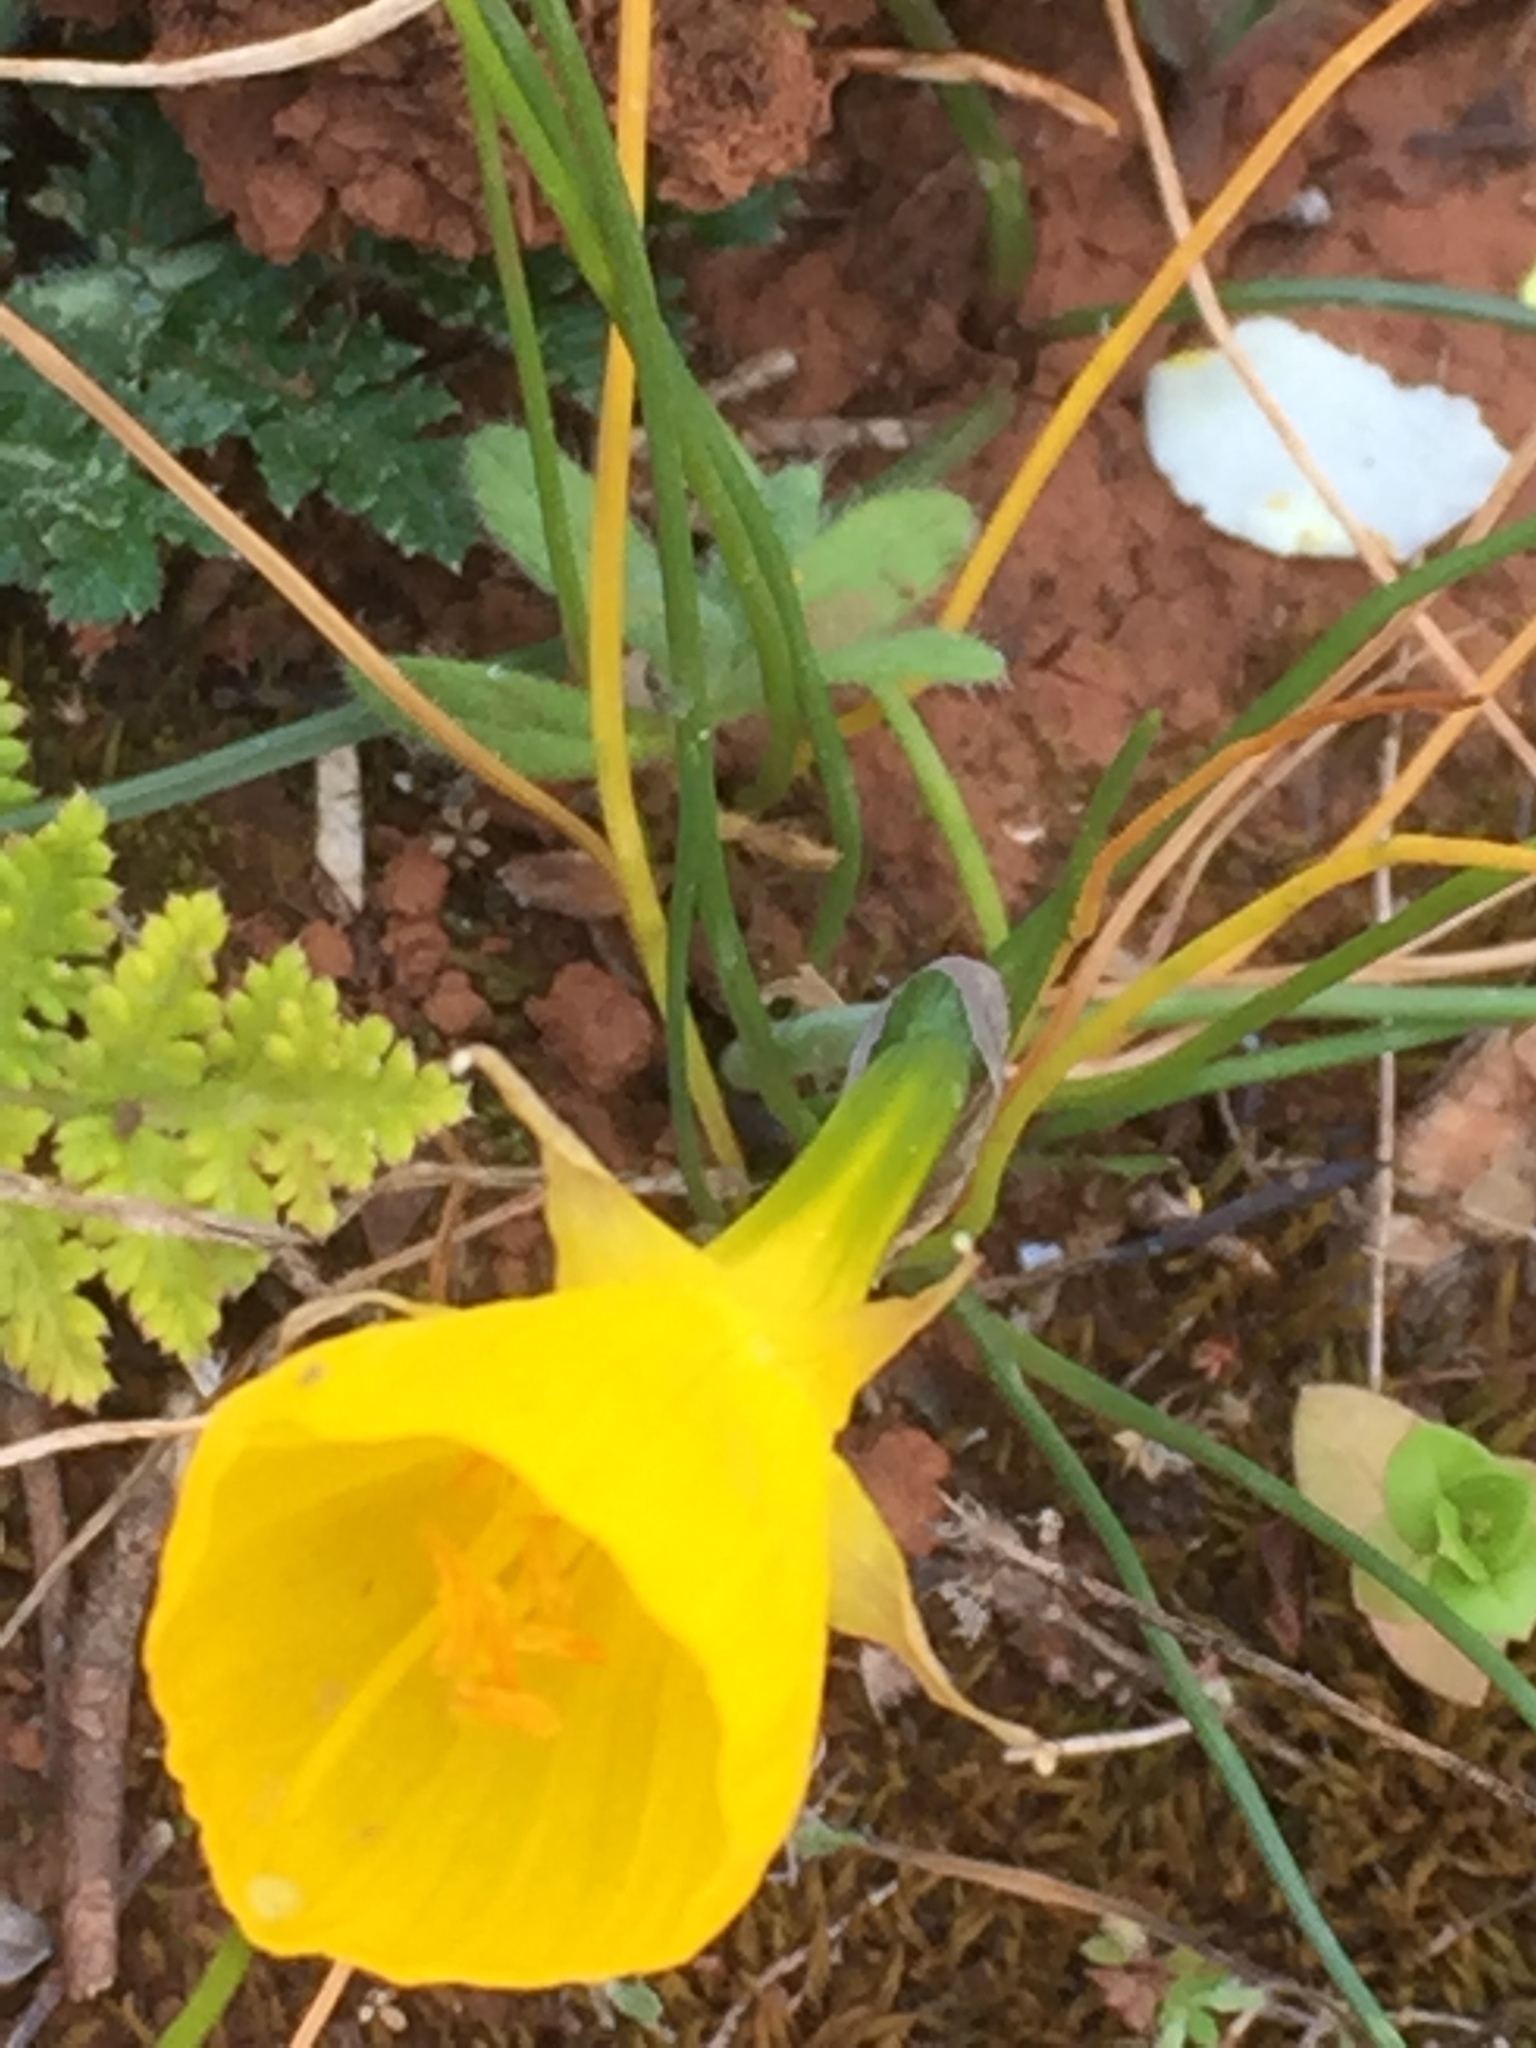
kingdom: Plantae
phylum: Tracheophyta
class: Liliopsida
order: Asparagales
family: Amaryllidaceae
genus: Narcissus
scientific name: Narcissus bulbocodium
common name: Hoop-petticoat daffodil
